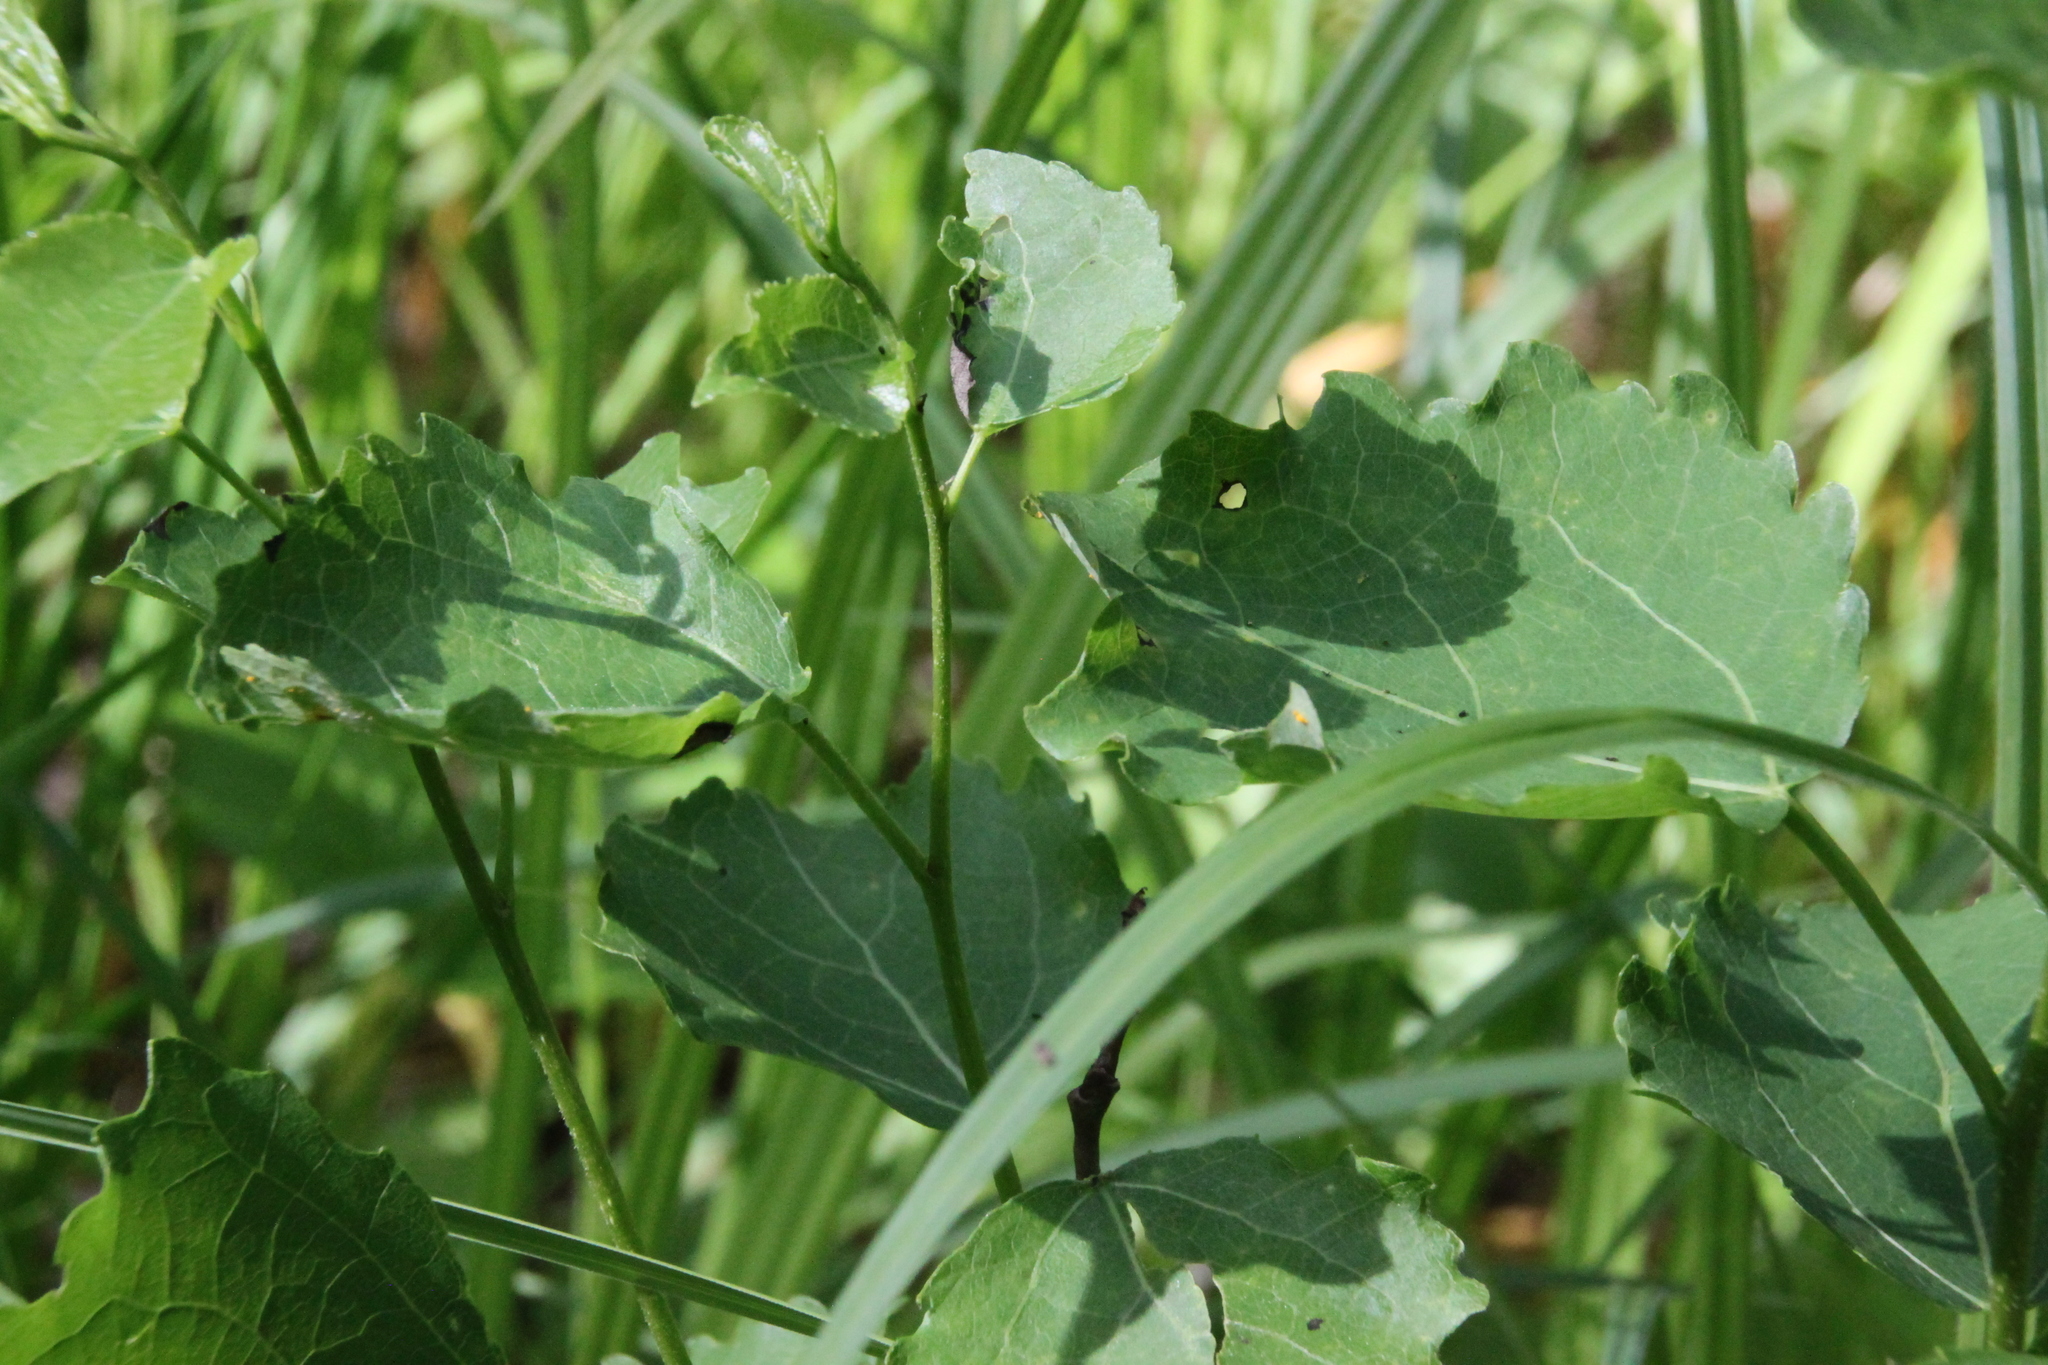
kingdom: Plantae
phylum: Tracheophyta
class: Magnoliopsida
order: Malpighiales
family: Salicaceae
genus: Populus
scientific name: Populus tremula
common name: European aspen
